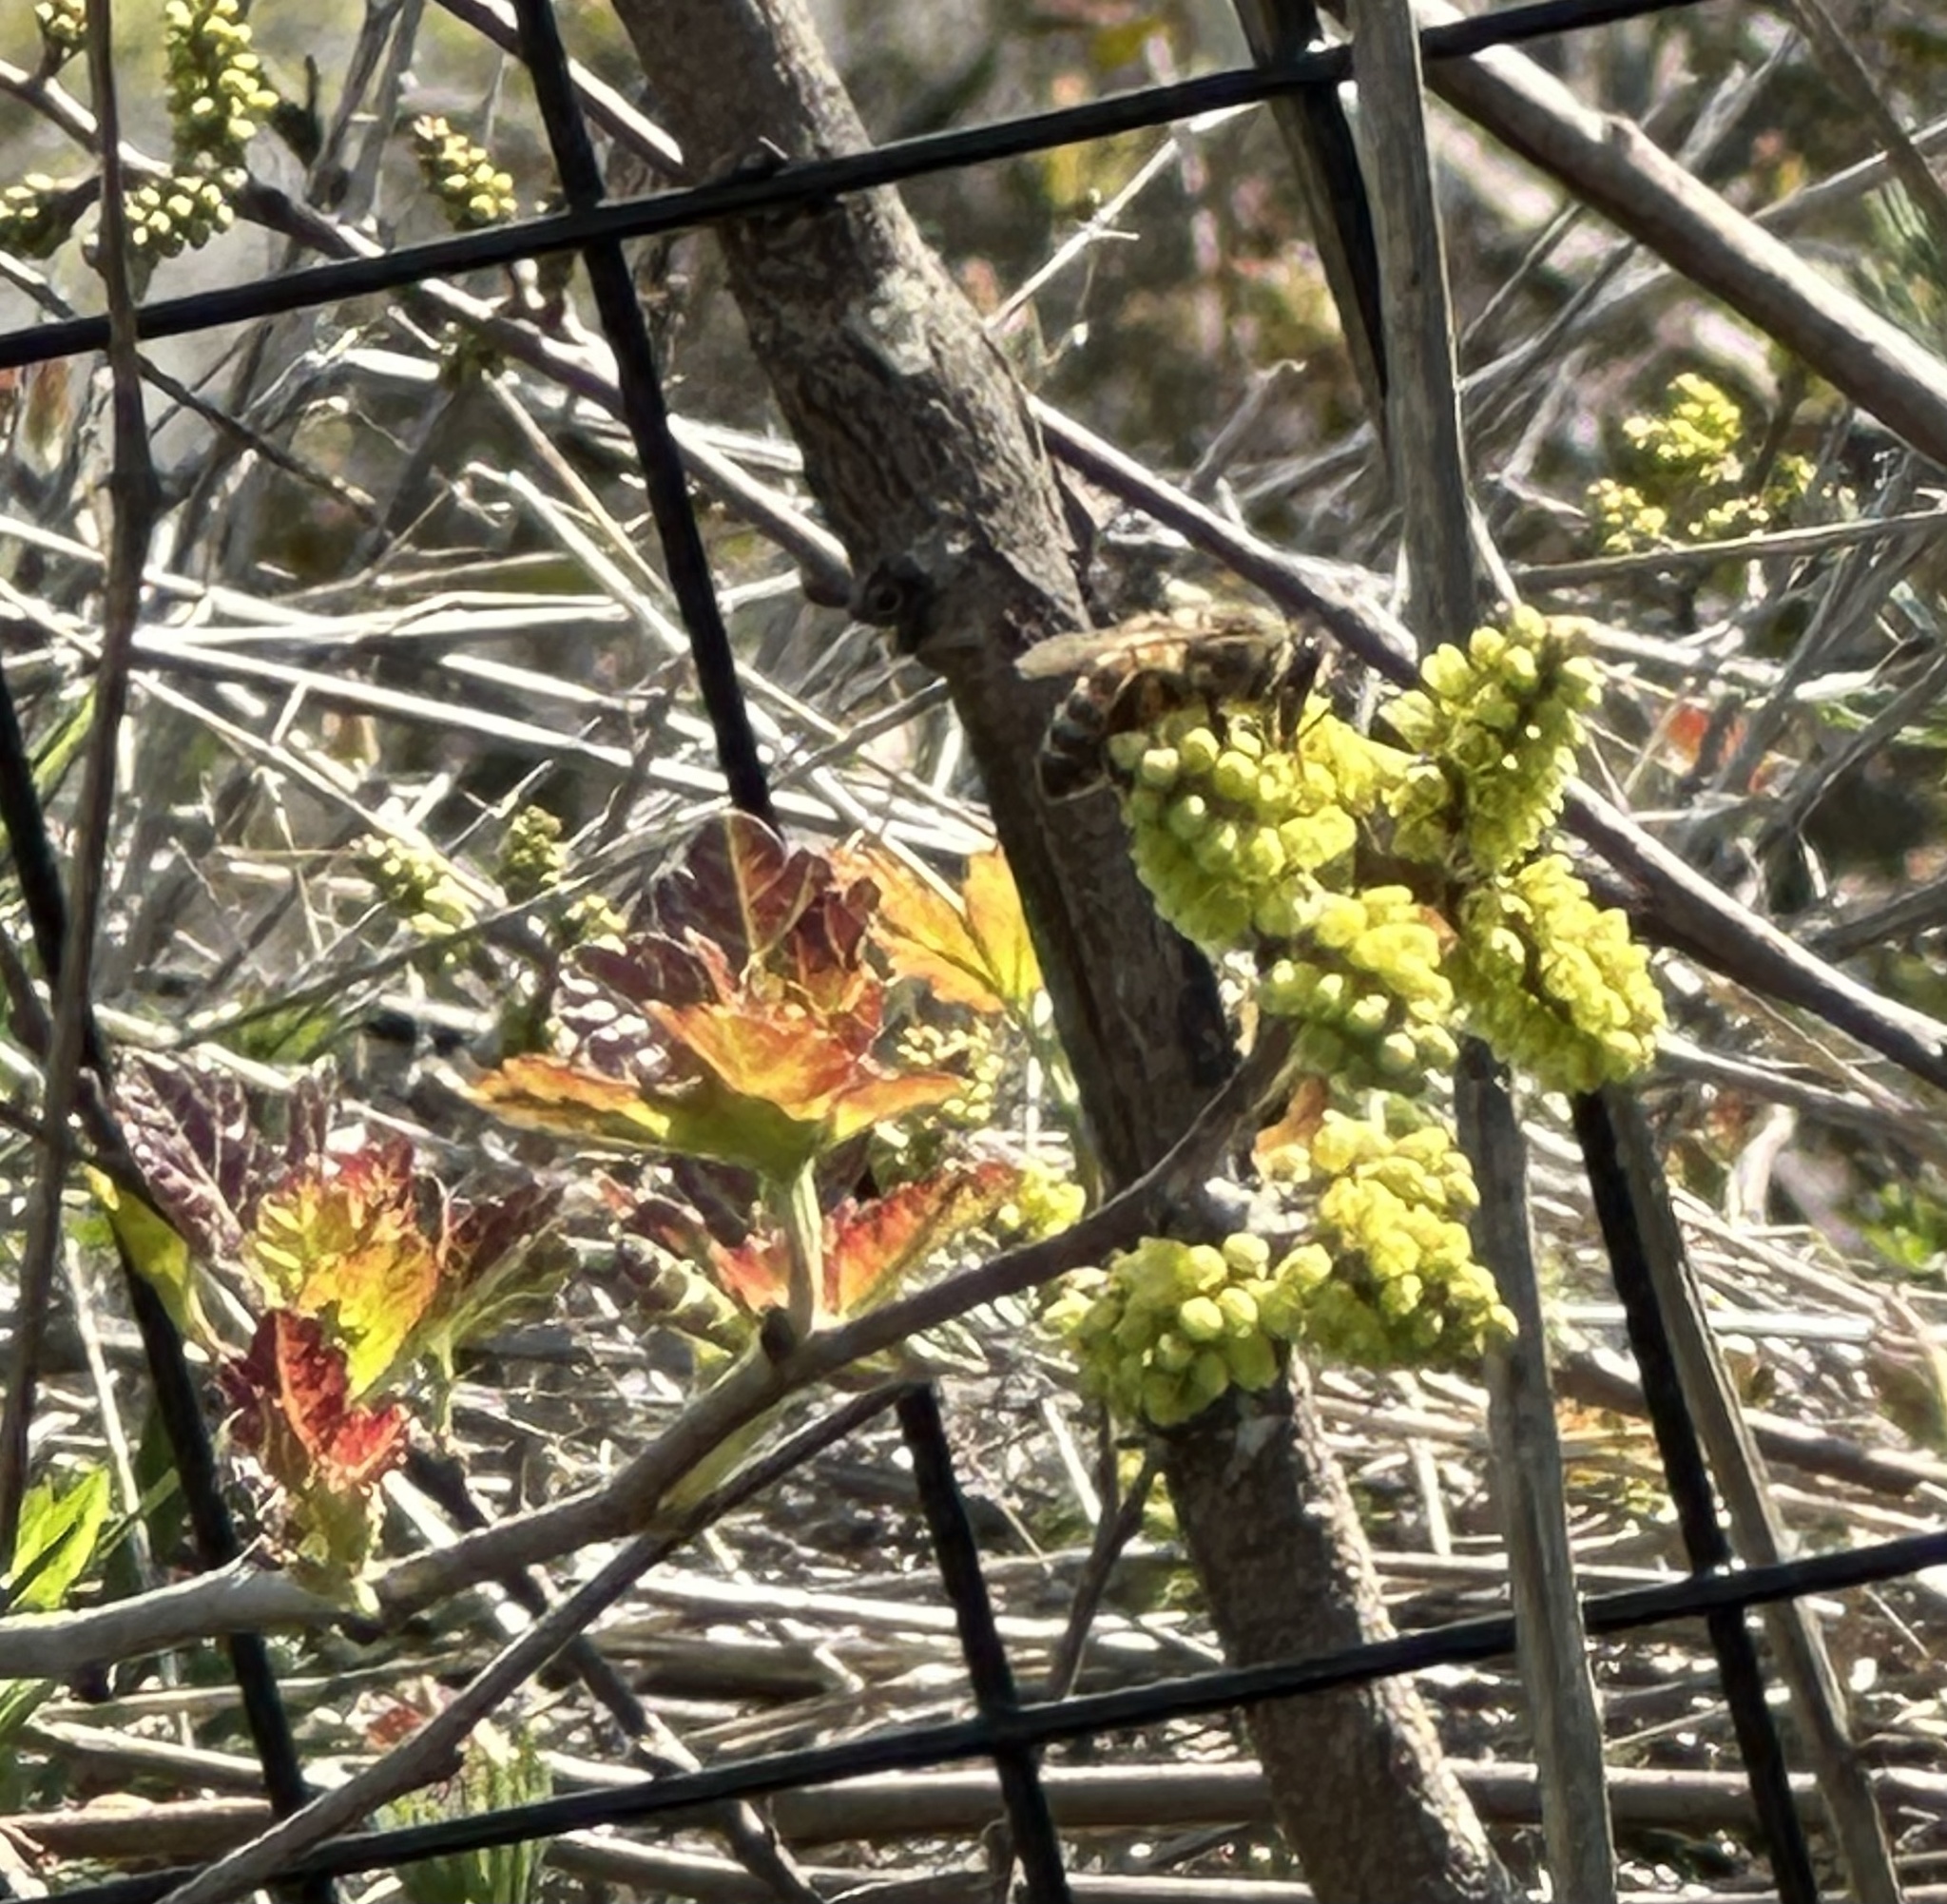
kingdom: Animalia
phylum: Arthropoda
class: Insecta
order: Hymenoptera
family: Apidae
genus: Apis
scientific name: Apis mellifera
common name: Honey bee
